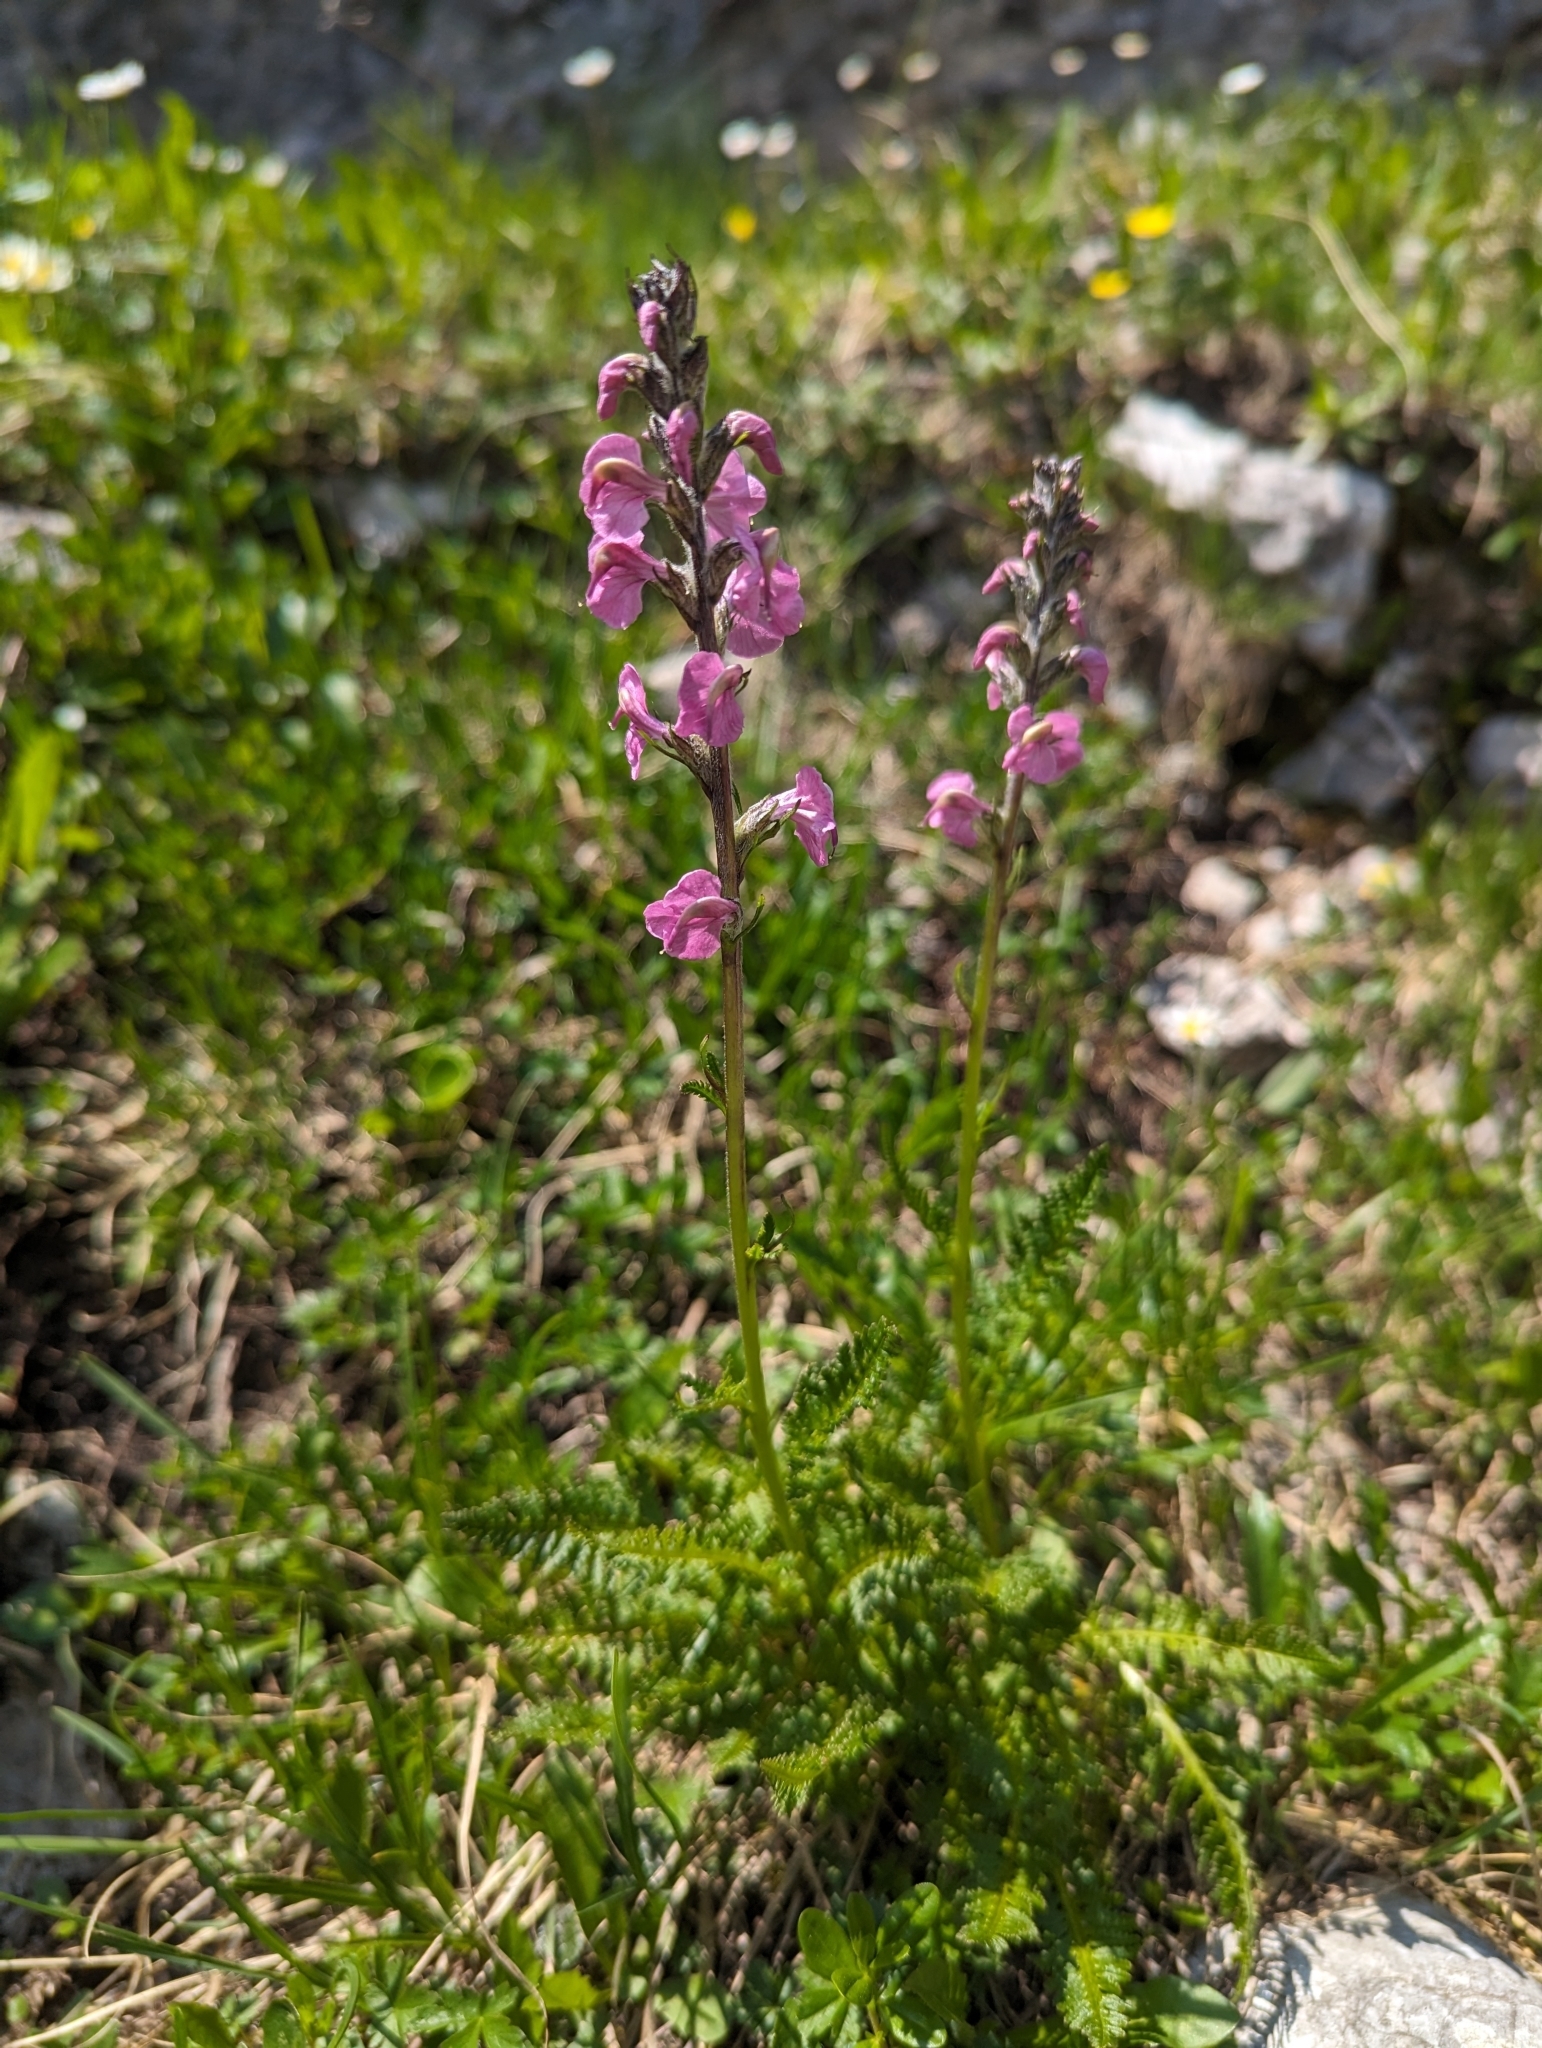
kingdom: Plantae
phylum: Tracheophyta
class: Magnoliopsida
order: Lamiales
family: Orobanchaceae
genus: Pedicularis
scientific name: Pedicularis rostratospicata
